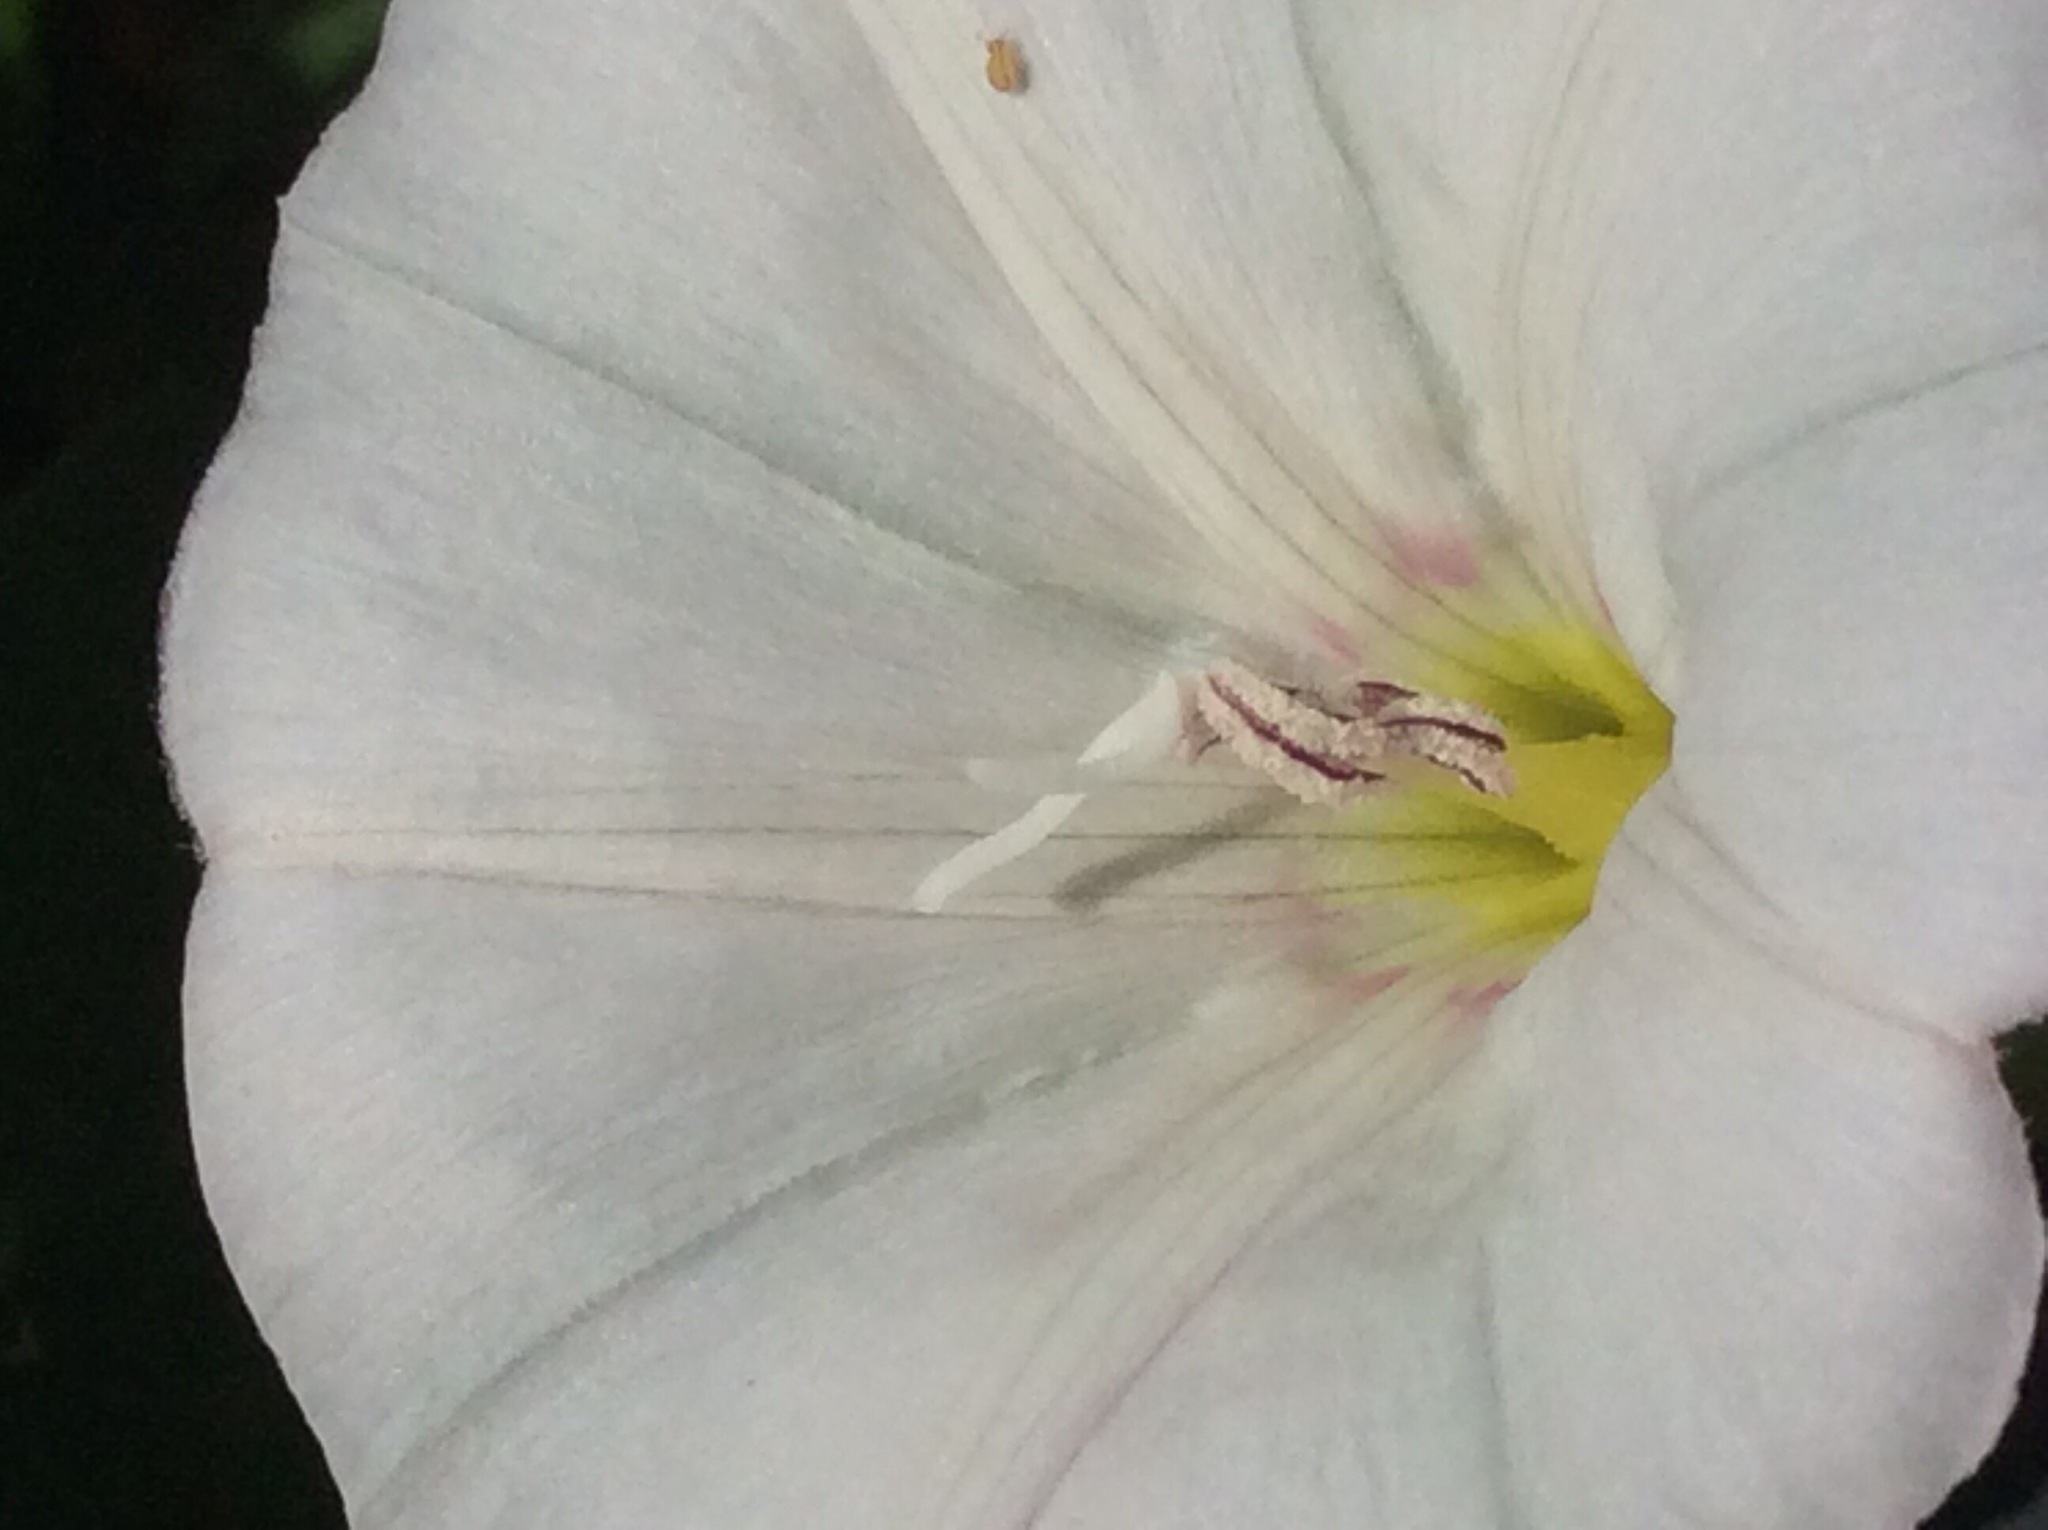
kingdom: Plantae
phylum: Tracheophyta
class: Magnoliopsida
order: Solanales
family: Convolvulaceae
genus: Convolvulus
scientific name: Convolvulus arvensis
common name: Field bindweed
